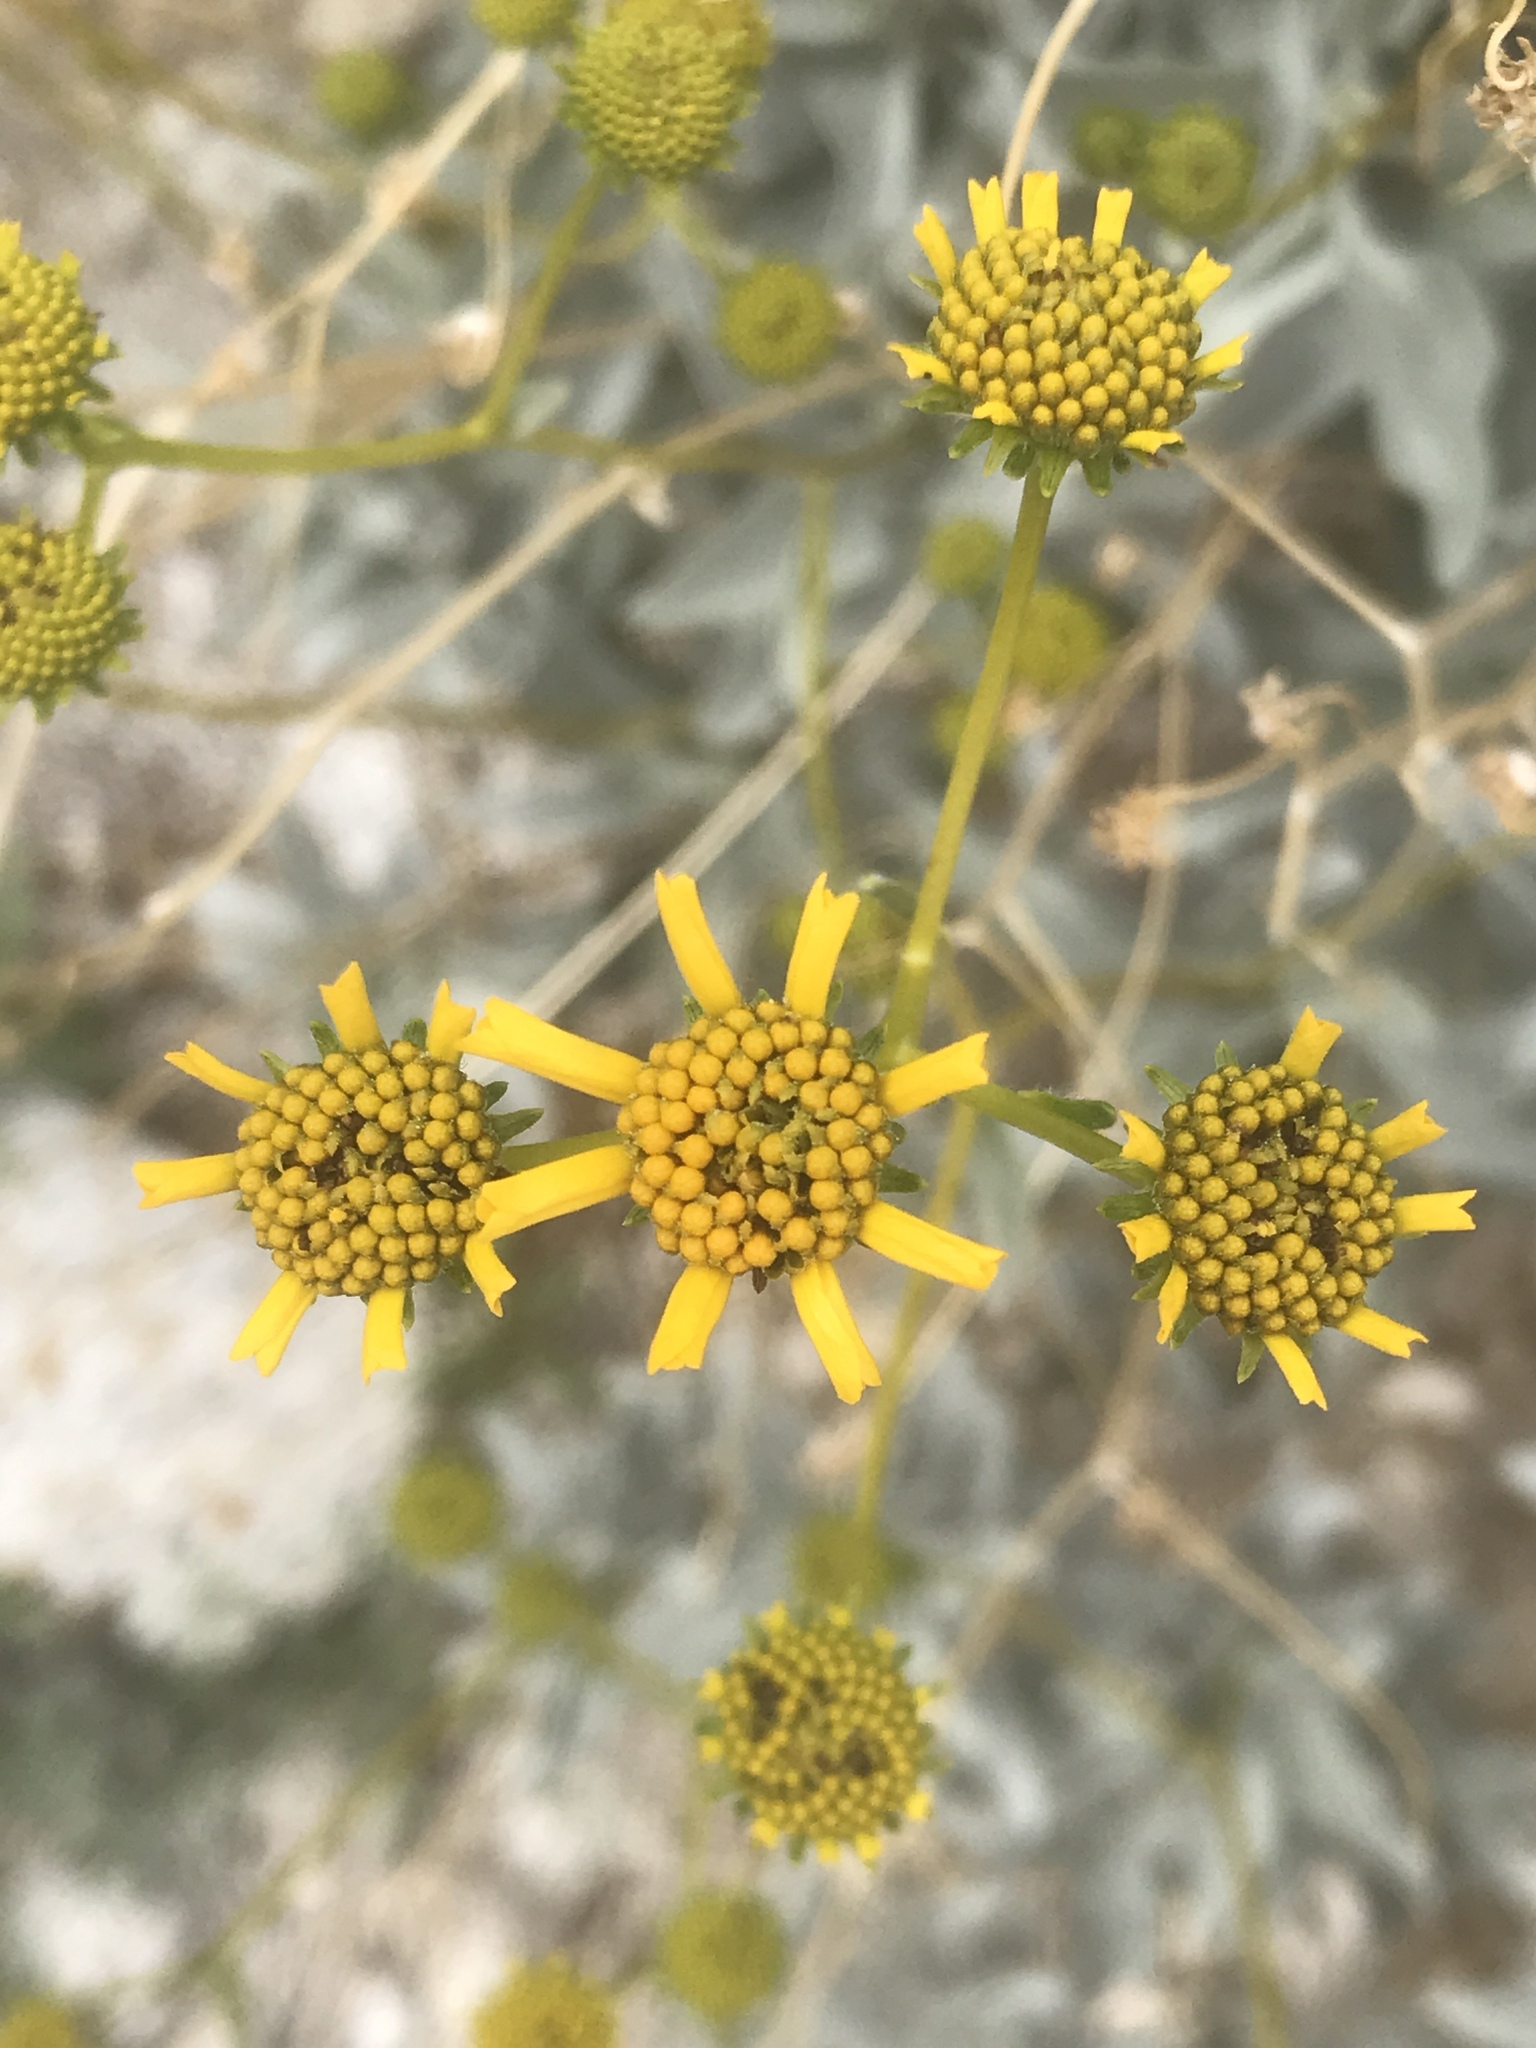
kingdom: Plantae
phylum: Tracheophyta
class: Magnoliopsida
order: Asterales
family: Asteraceae
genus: Encelia
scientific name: Encelia farinosa
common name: Brittlebush
